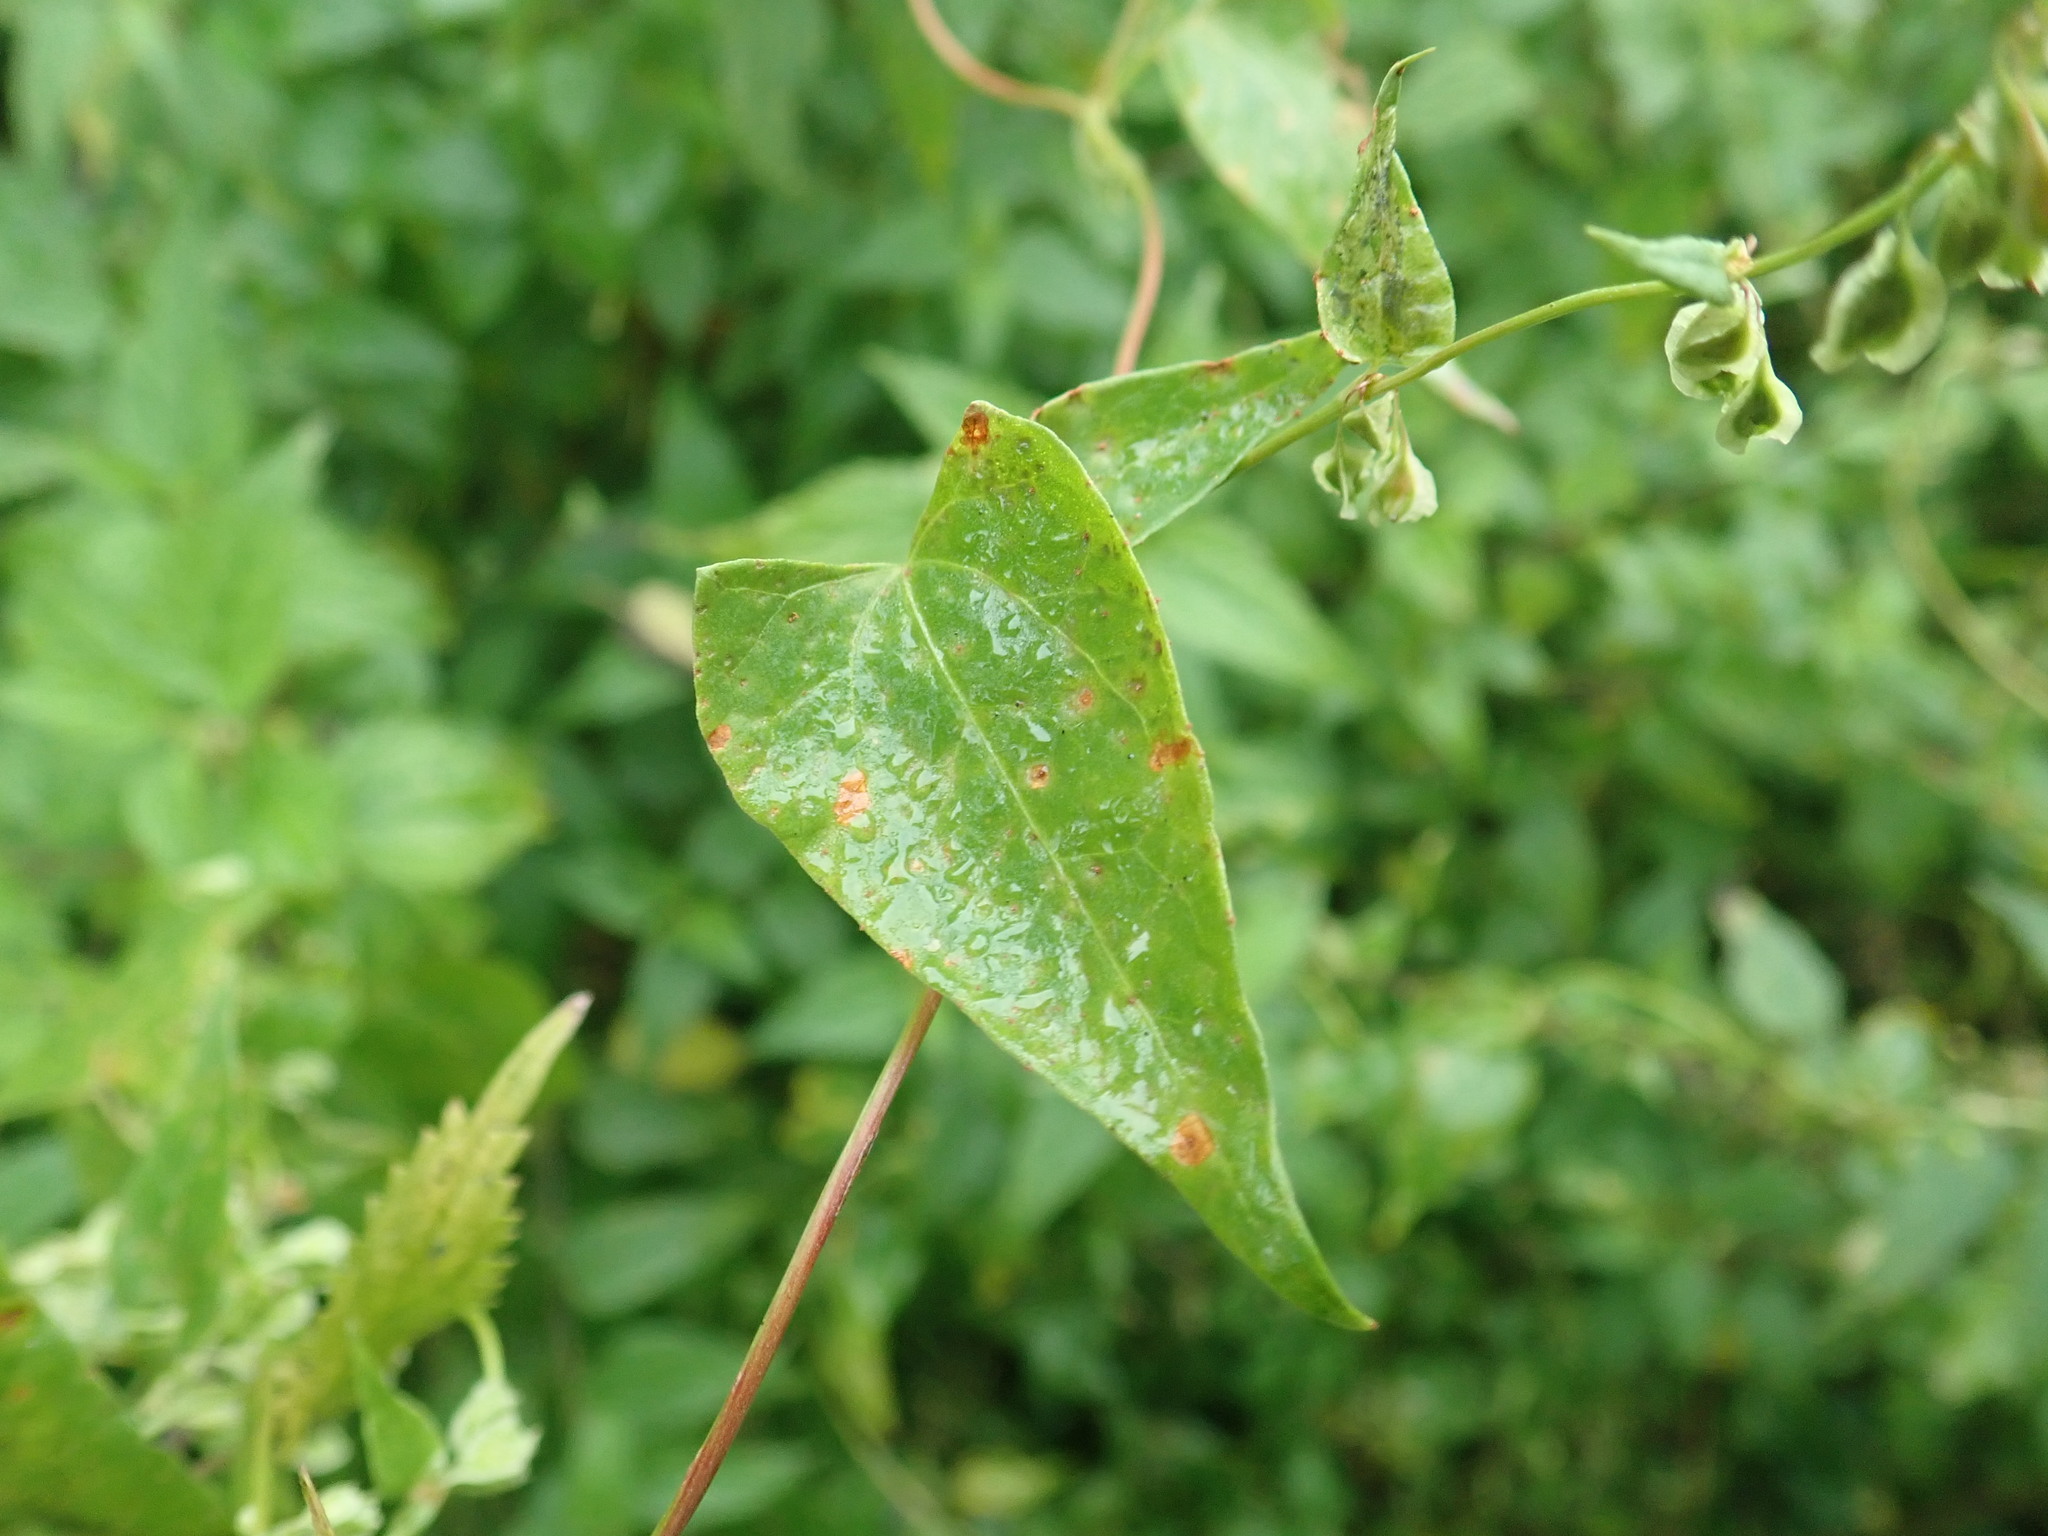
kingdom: Plantae
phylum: Tracheophyta
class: Magnoliopsida
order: Caryophyllales
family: Polygonaceae
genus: Fallopia
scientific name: Fallopia dumetorum
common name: Copse-bindweed
